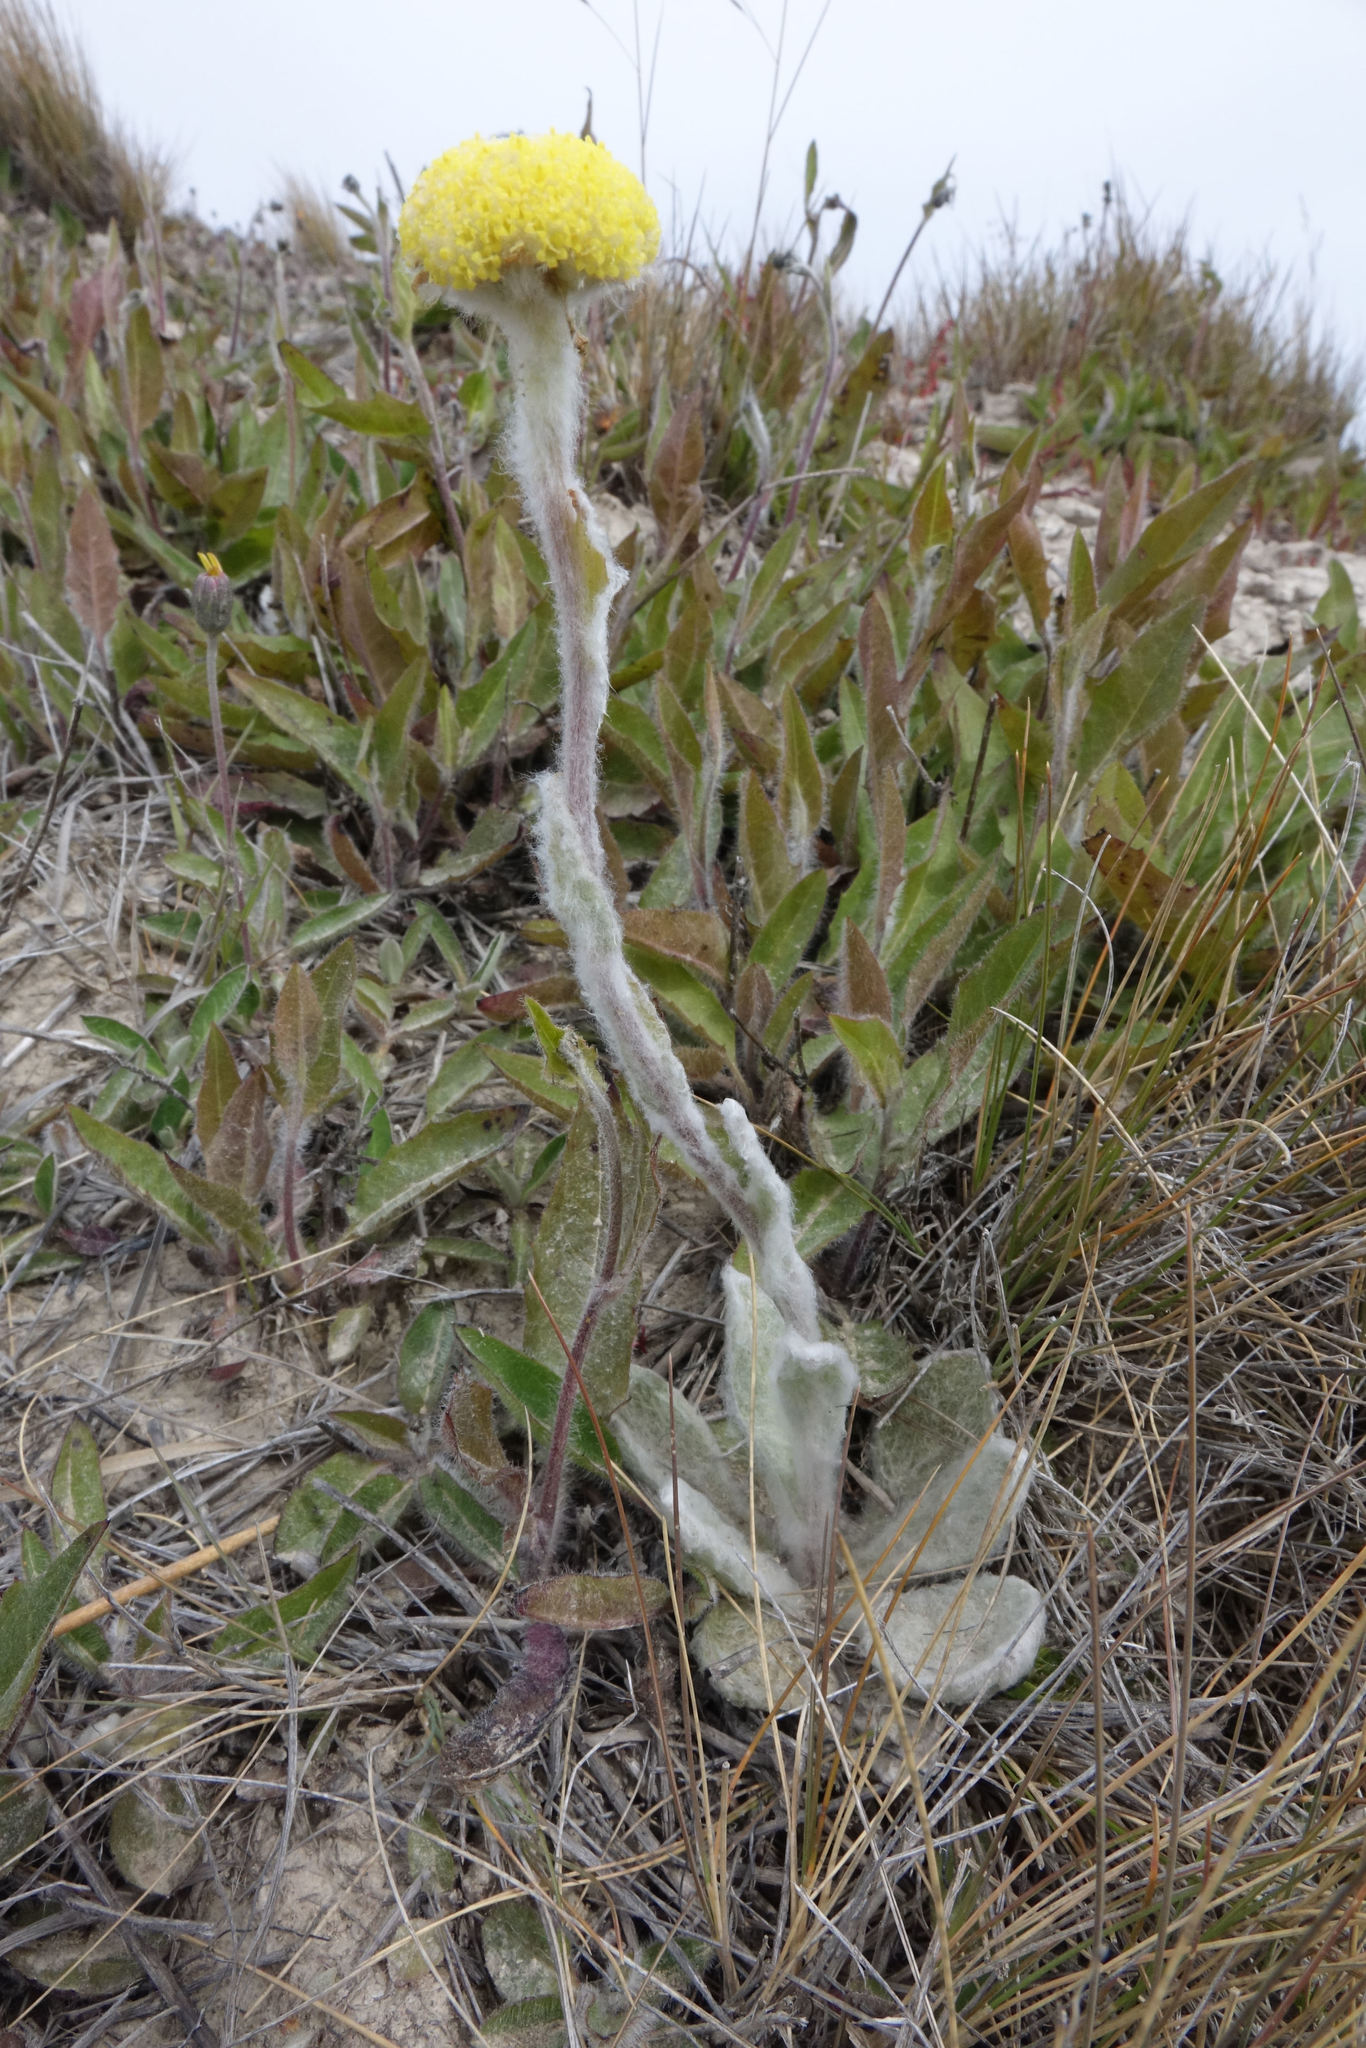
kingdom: Plantae
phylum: Tracheophyta
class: Magnoliopsida
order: Asterales
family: Asteraceae
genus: Craspedia
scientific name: Craspedia lanata
